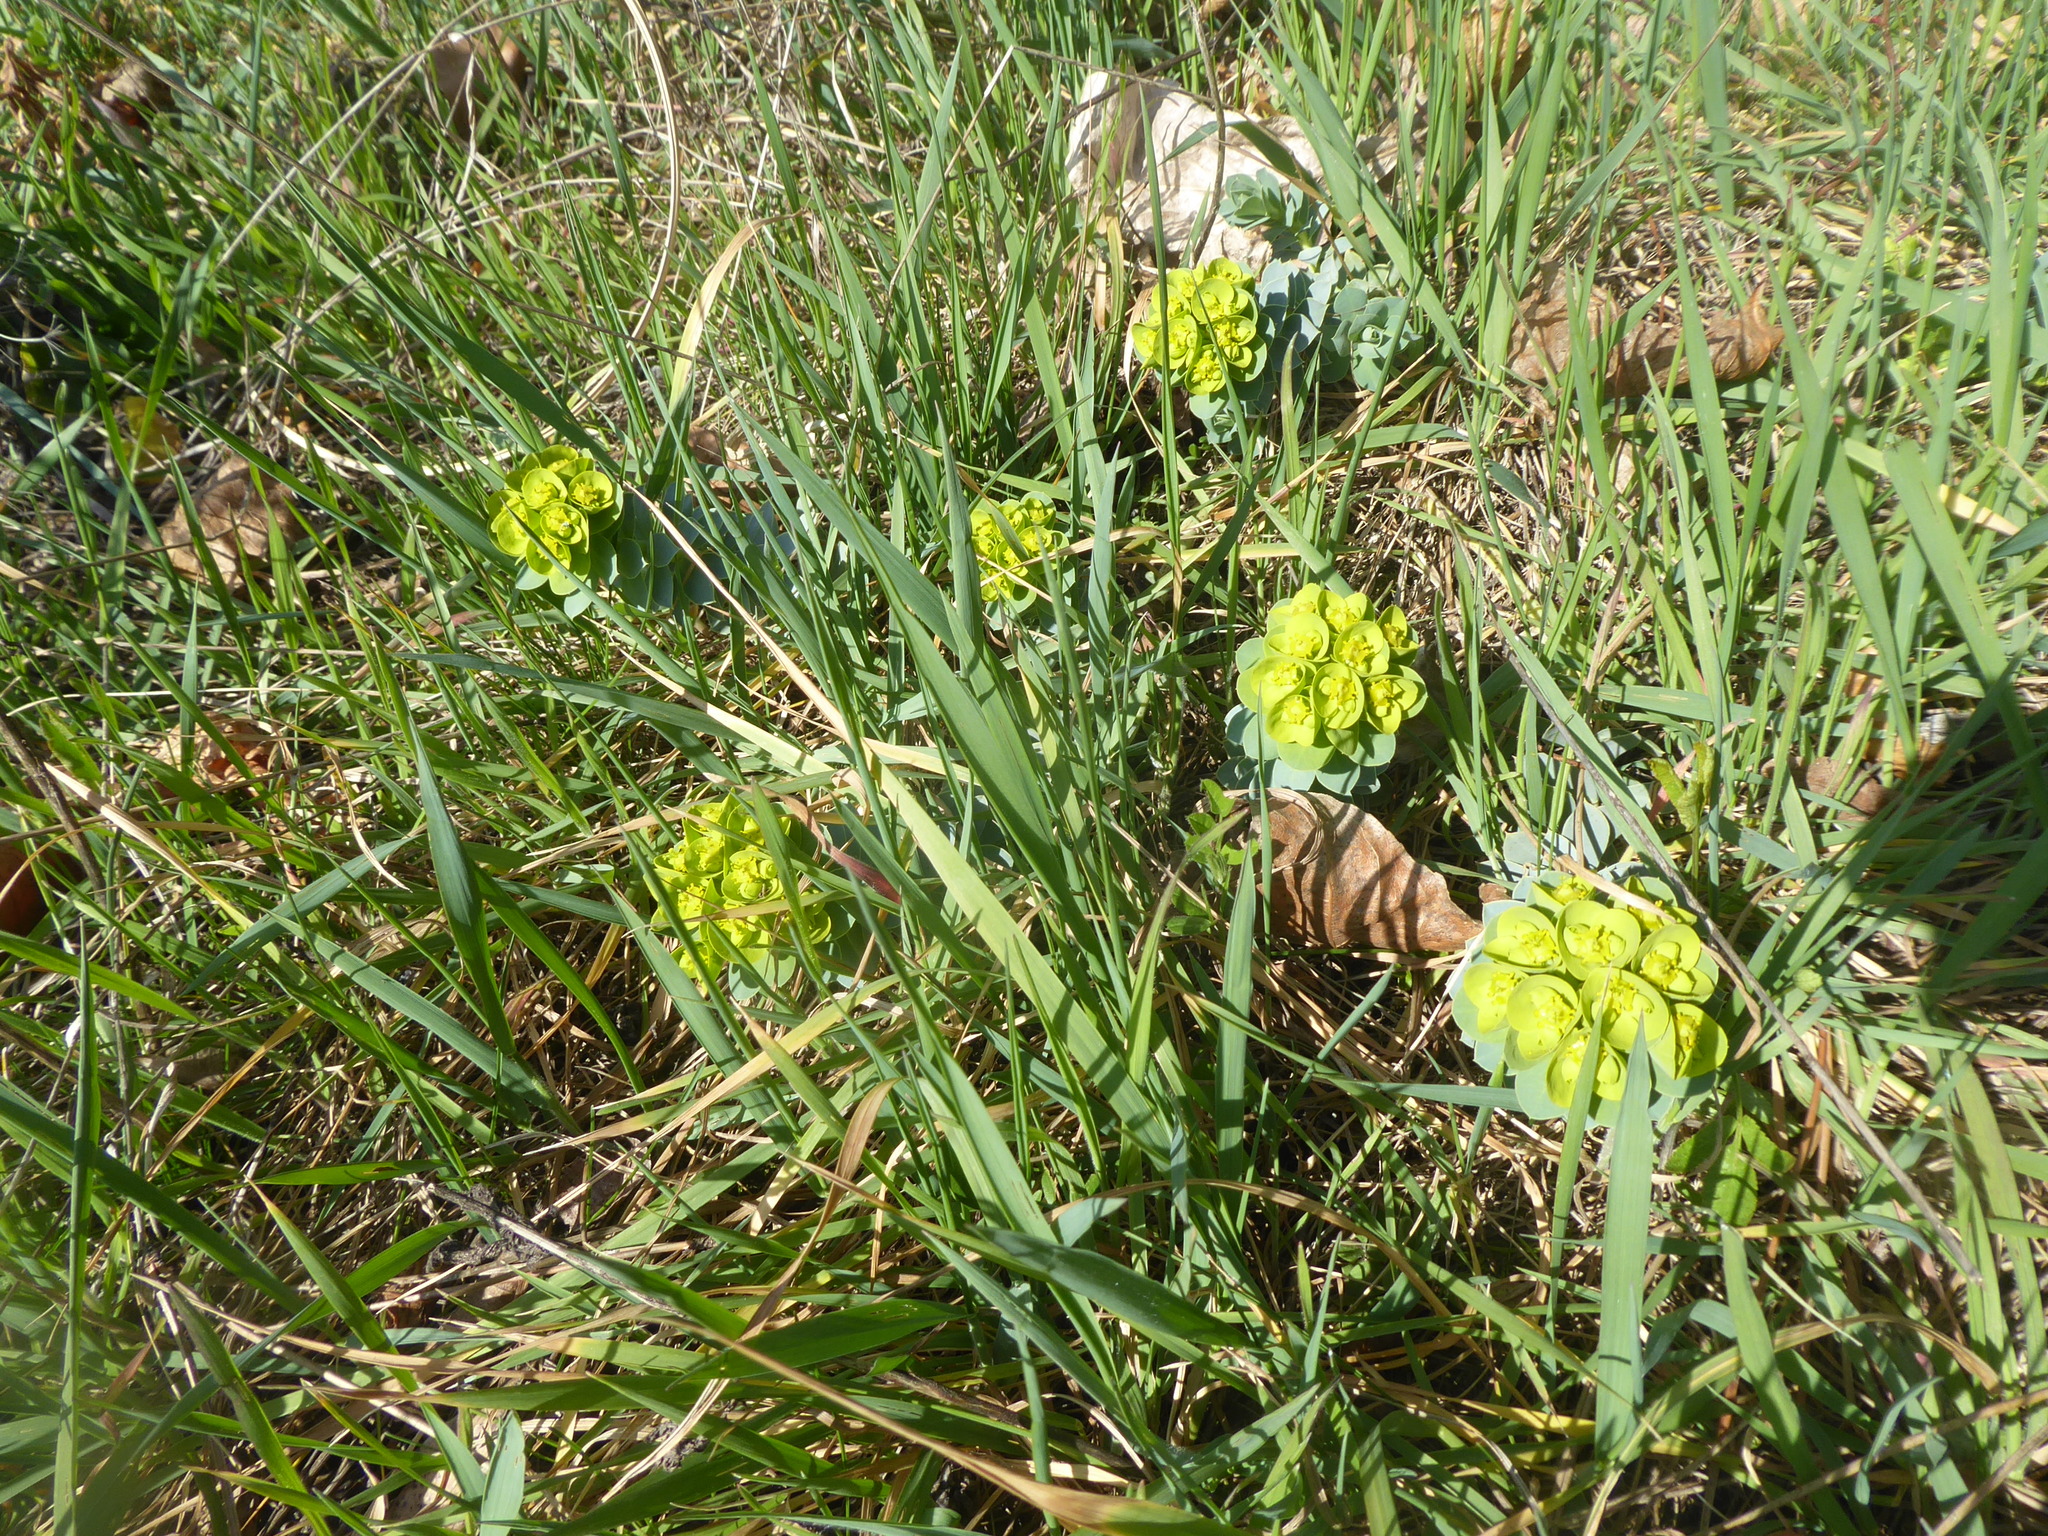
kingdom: Plantae
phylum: Tracheophyta
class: Magnoliopsida
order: Malpighiales
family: Euphorbiaceae
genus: Euphorbia
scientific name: Euphorbia myrsinites
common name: Myrtle spurge
